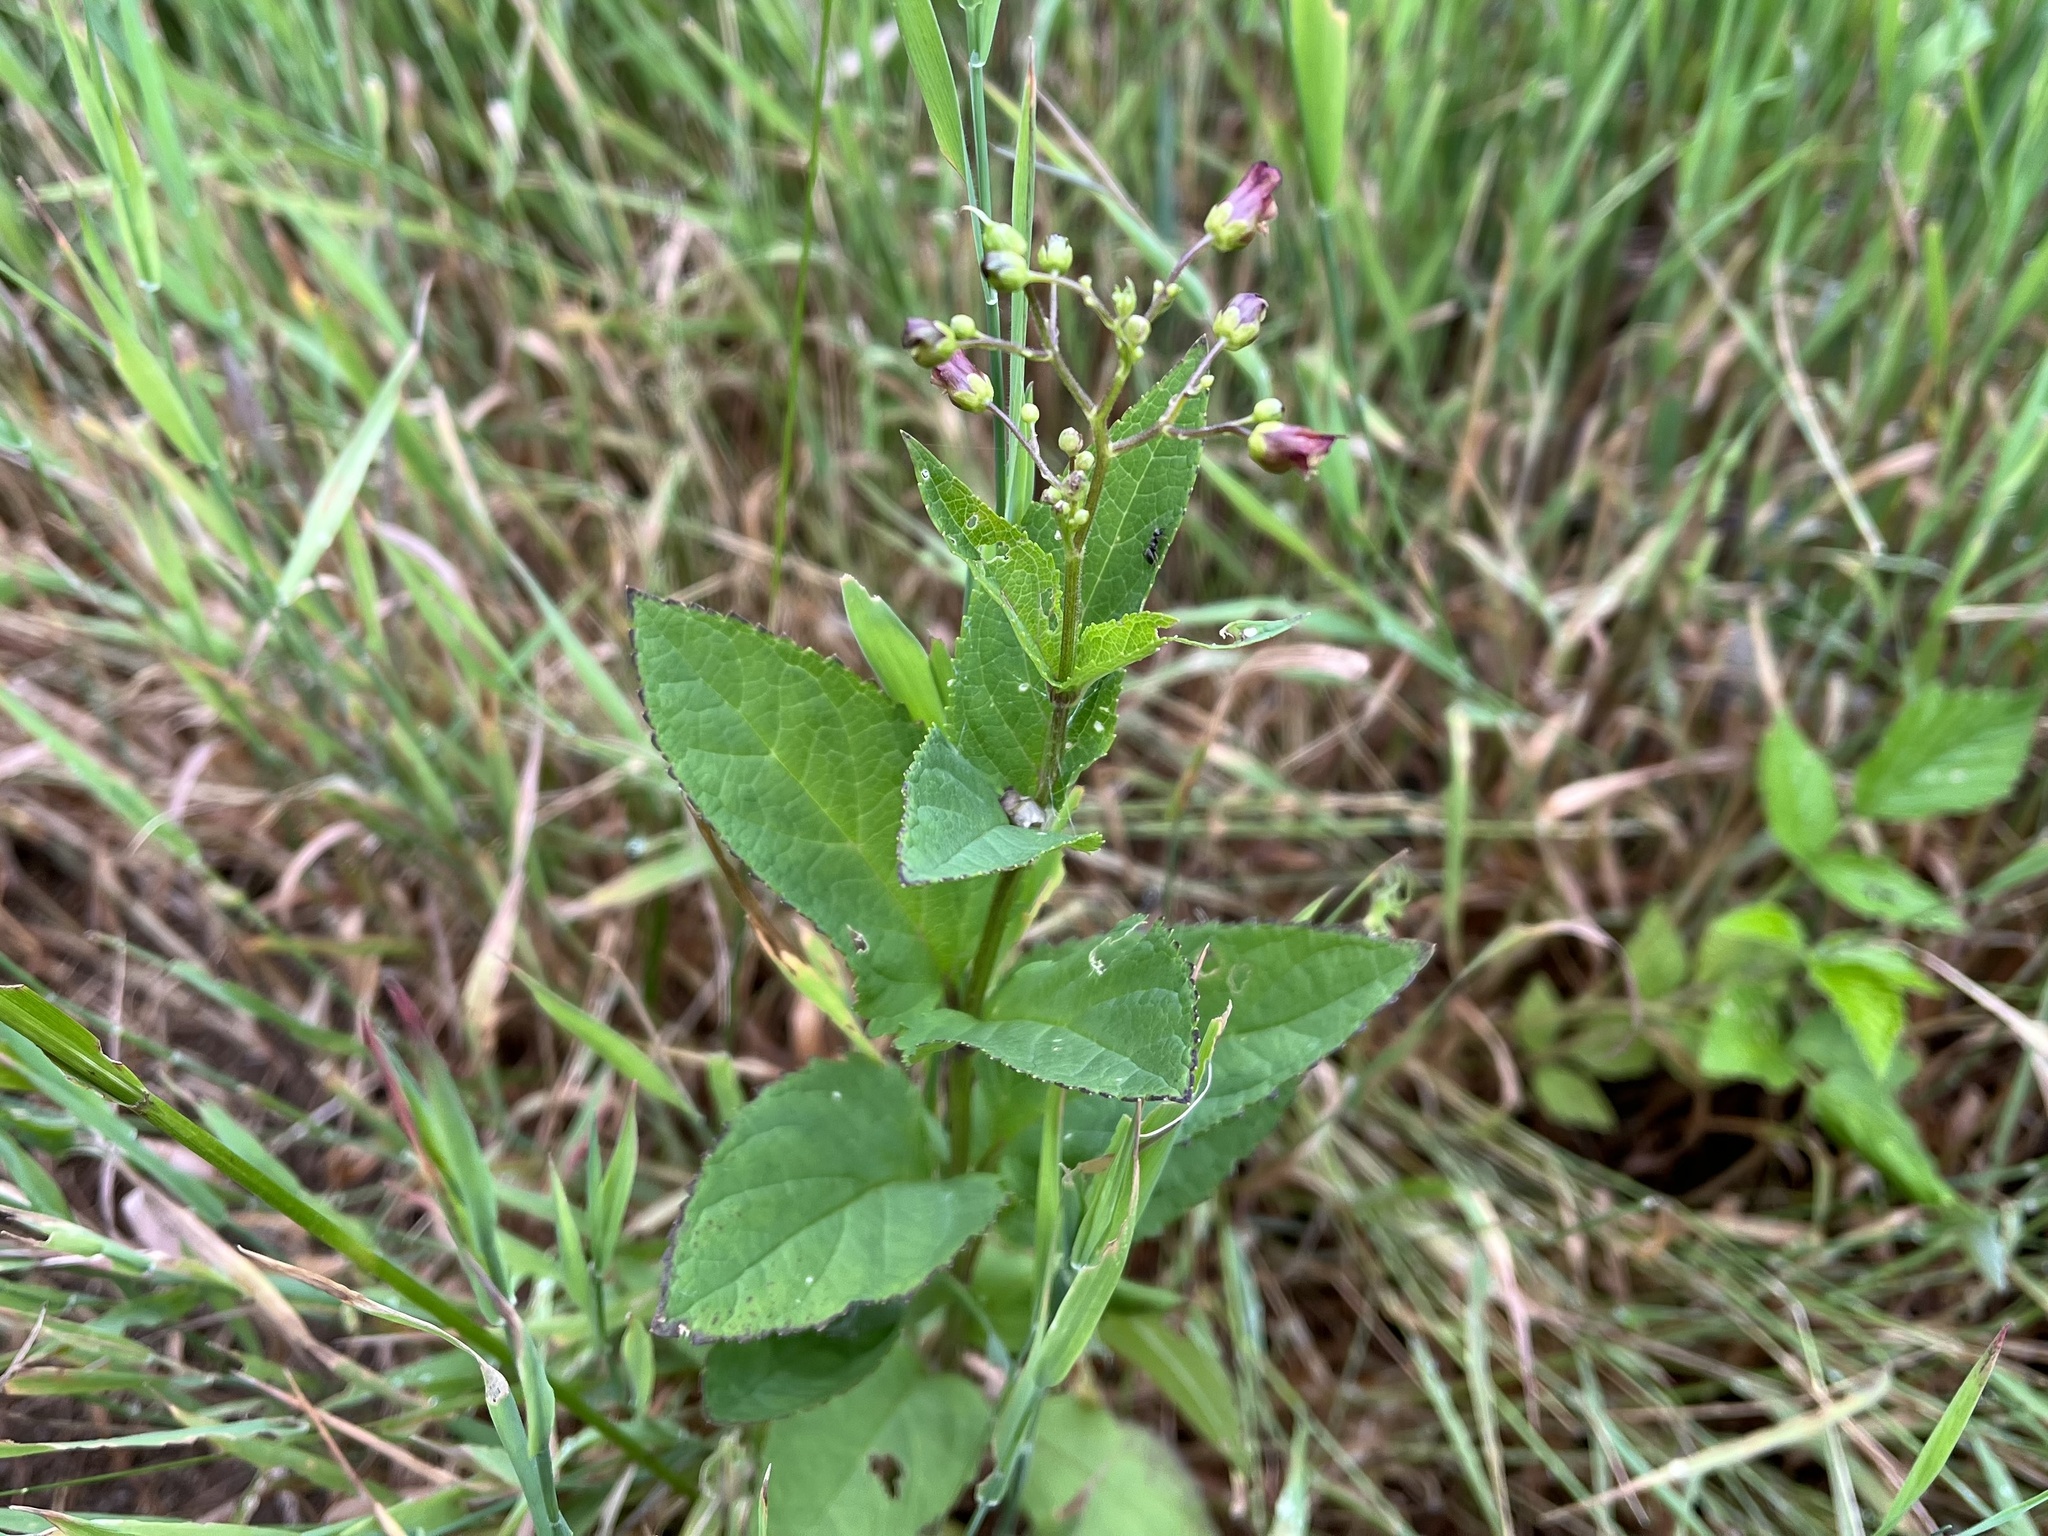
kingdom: Plantae
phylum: Tracheophyta
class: Magnoliopsida
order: Lamiales
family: Scrophulariaceae
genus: Scrophularia
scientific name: Scrophularia nodosa
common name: Common figwort
